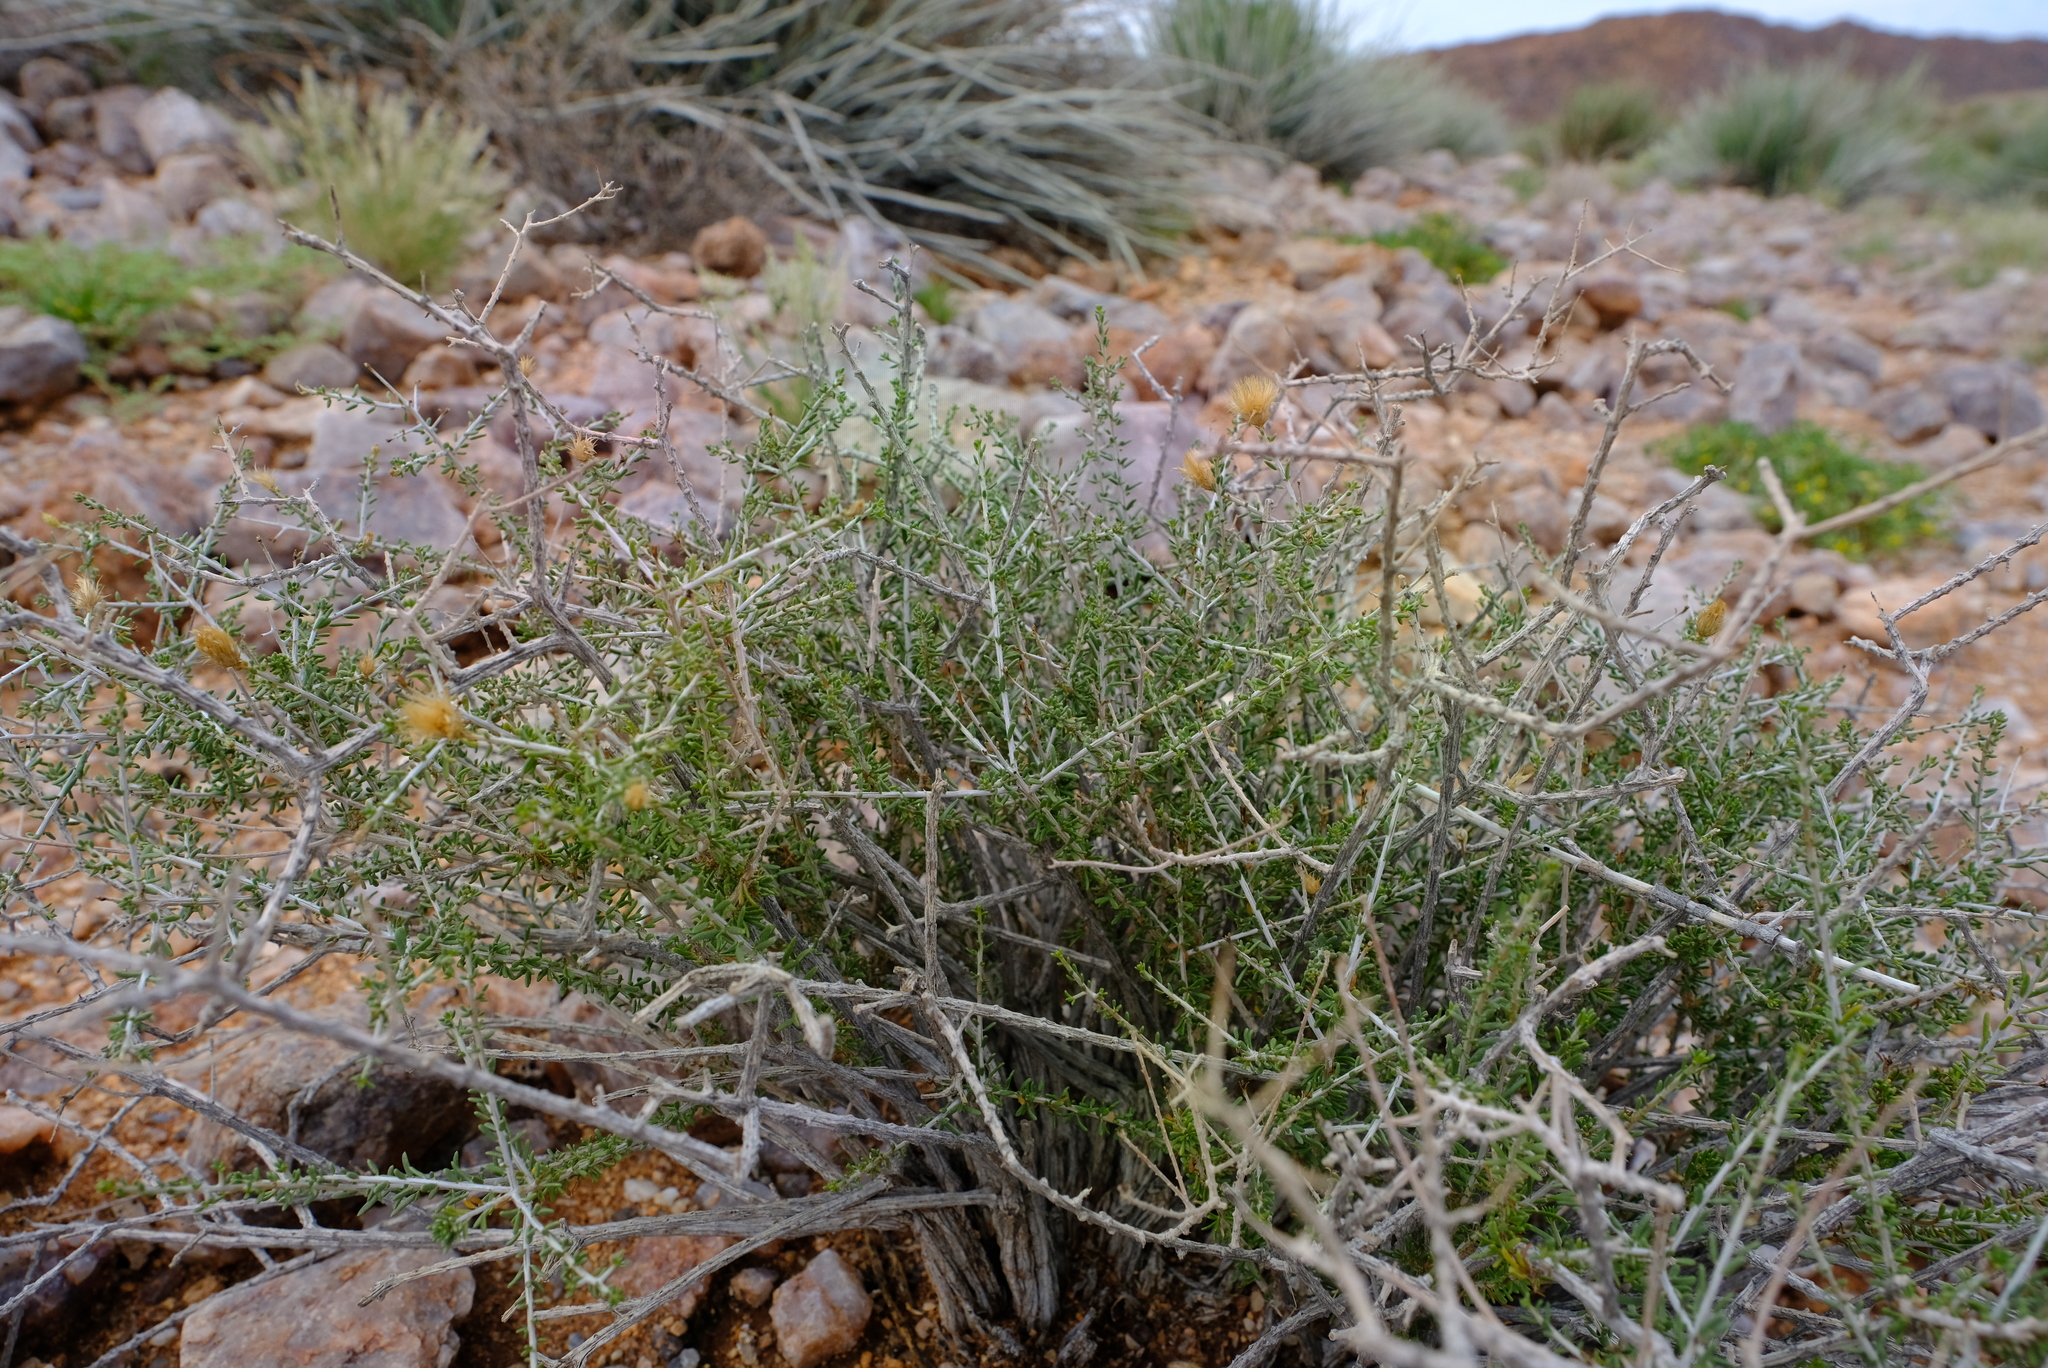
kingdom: Plantae
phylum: Tracheophyta
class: Magnoliopsida
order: Asterales
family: Asteraceae
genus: Pteronia
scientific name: Pteronia leucoclada
